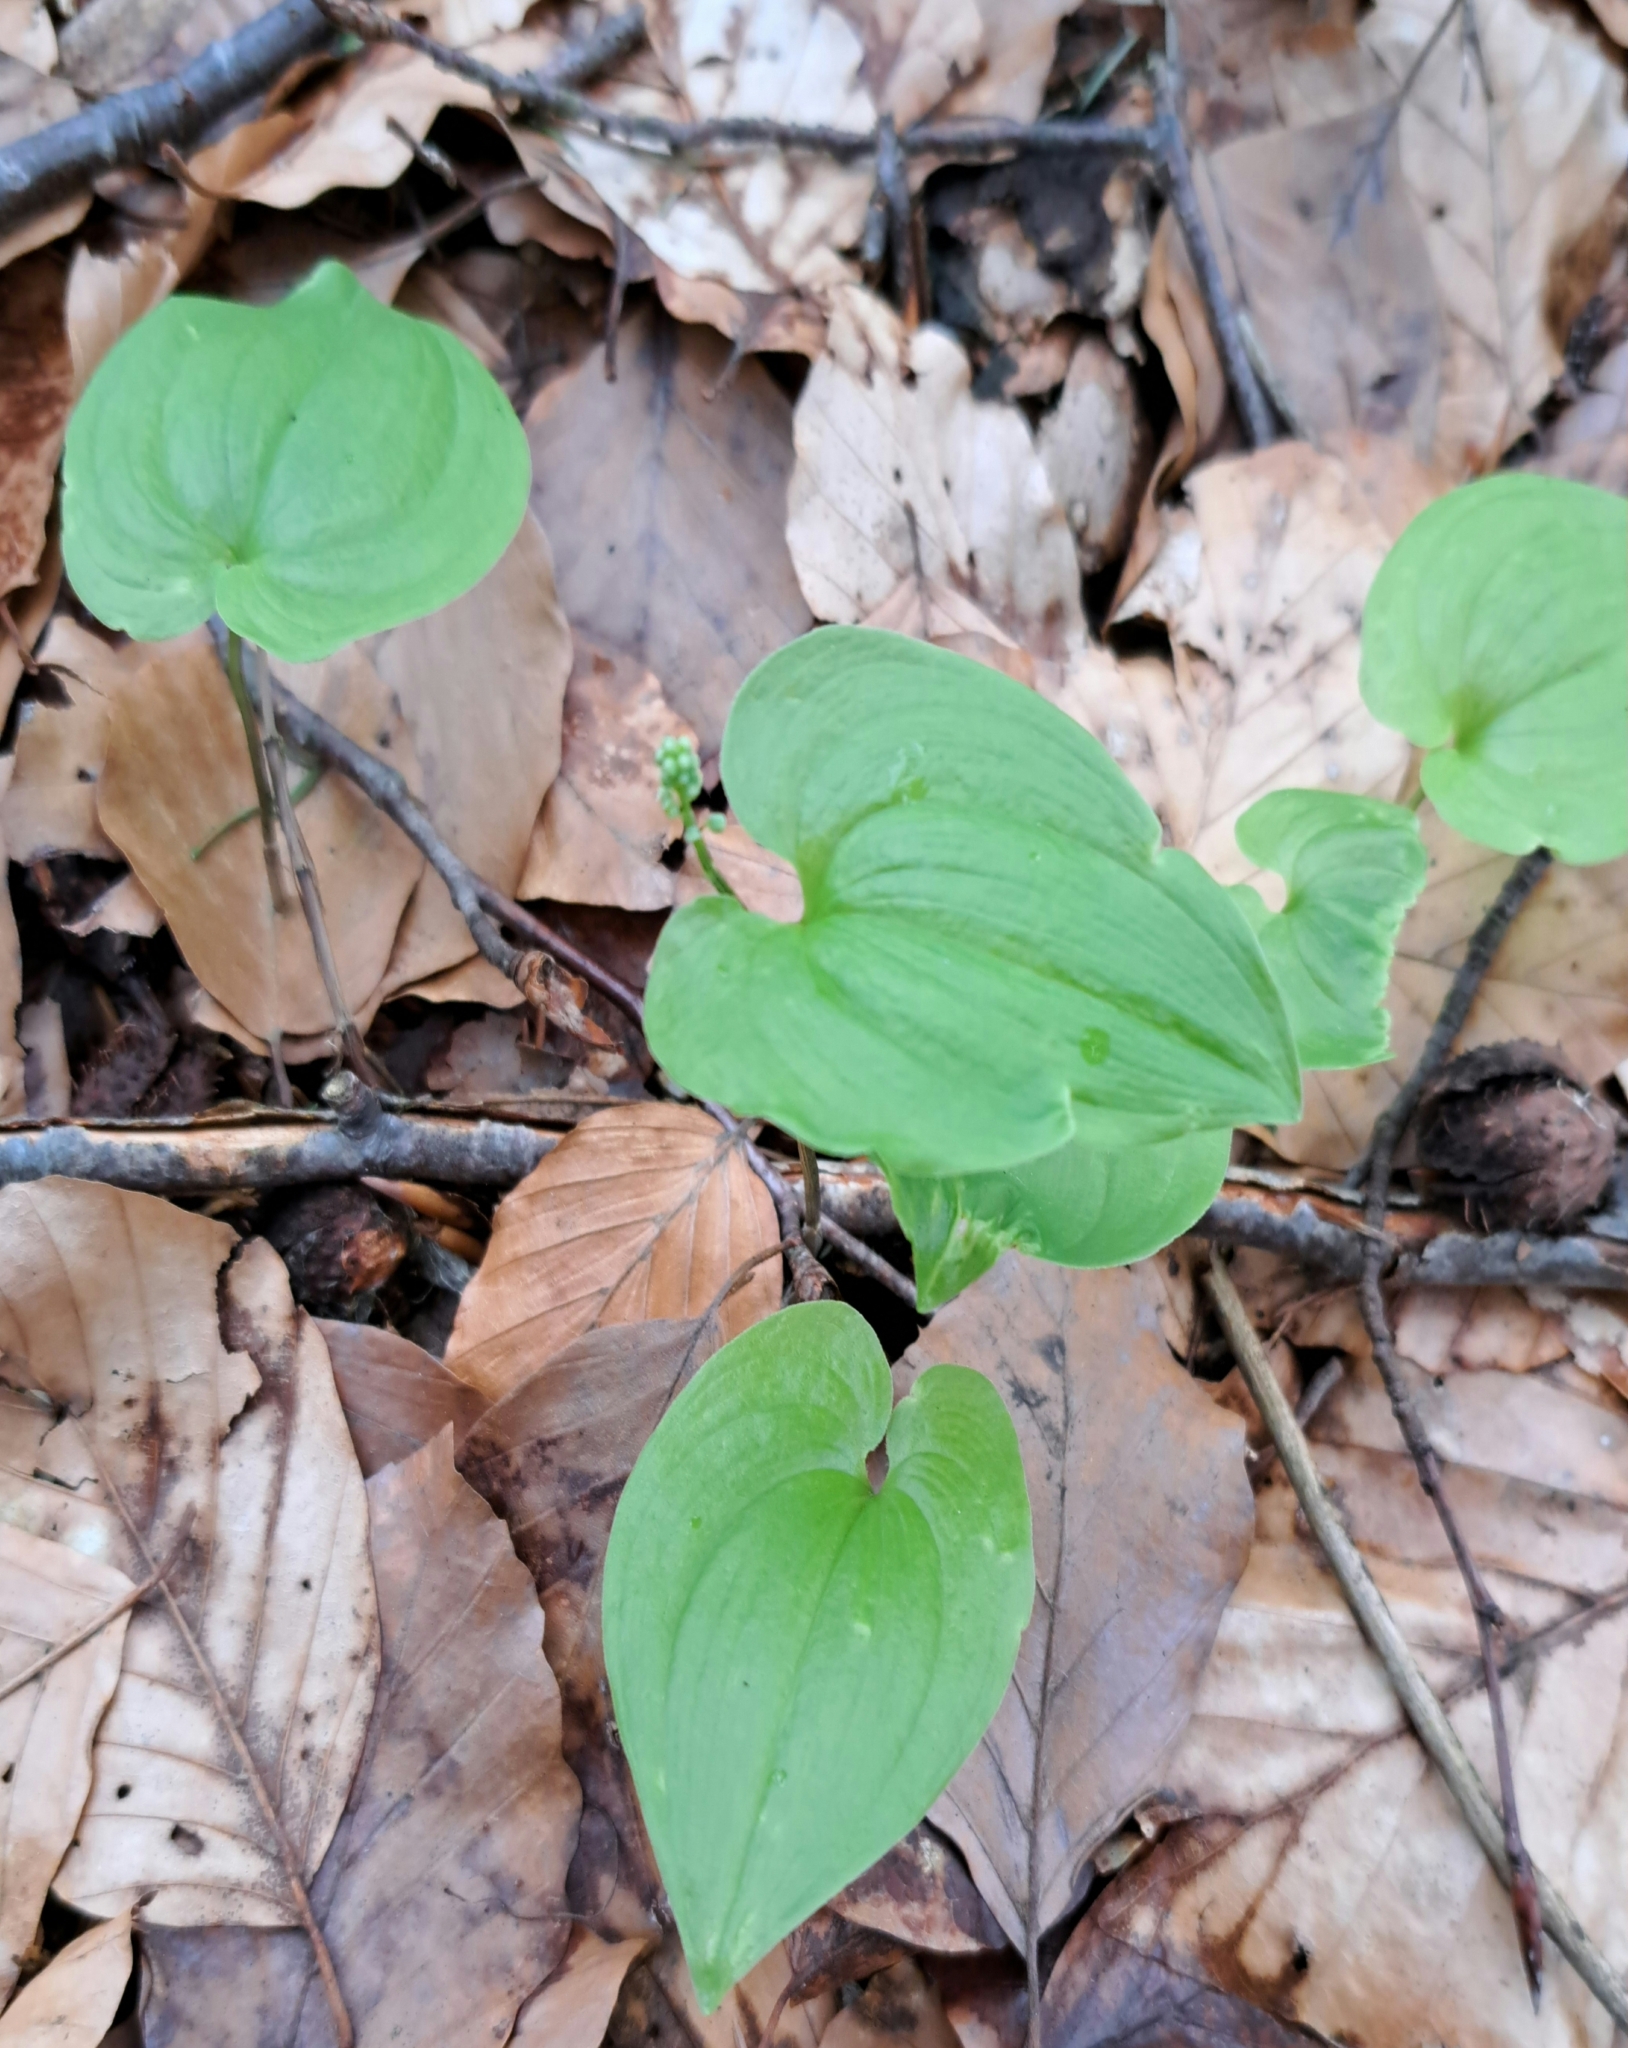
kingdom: Plantae
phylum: Tracheophyta
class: Liliopsida
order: Asparagales
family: Asparagaceae
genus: Maianthemum
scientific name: Maianthemum bifolium
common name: May lily
